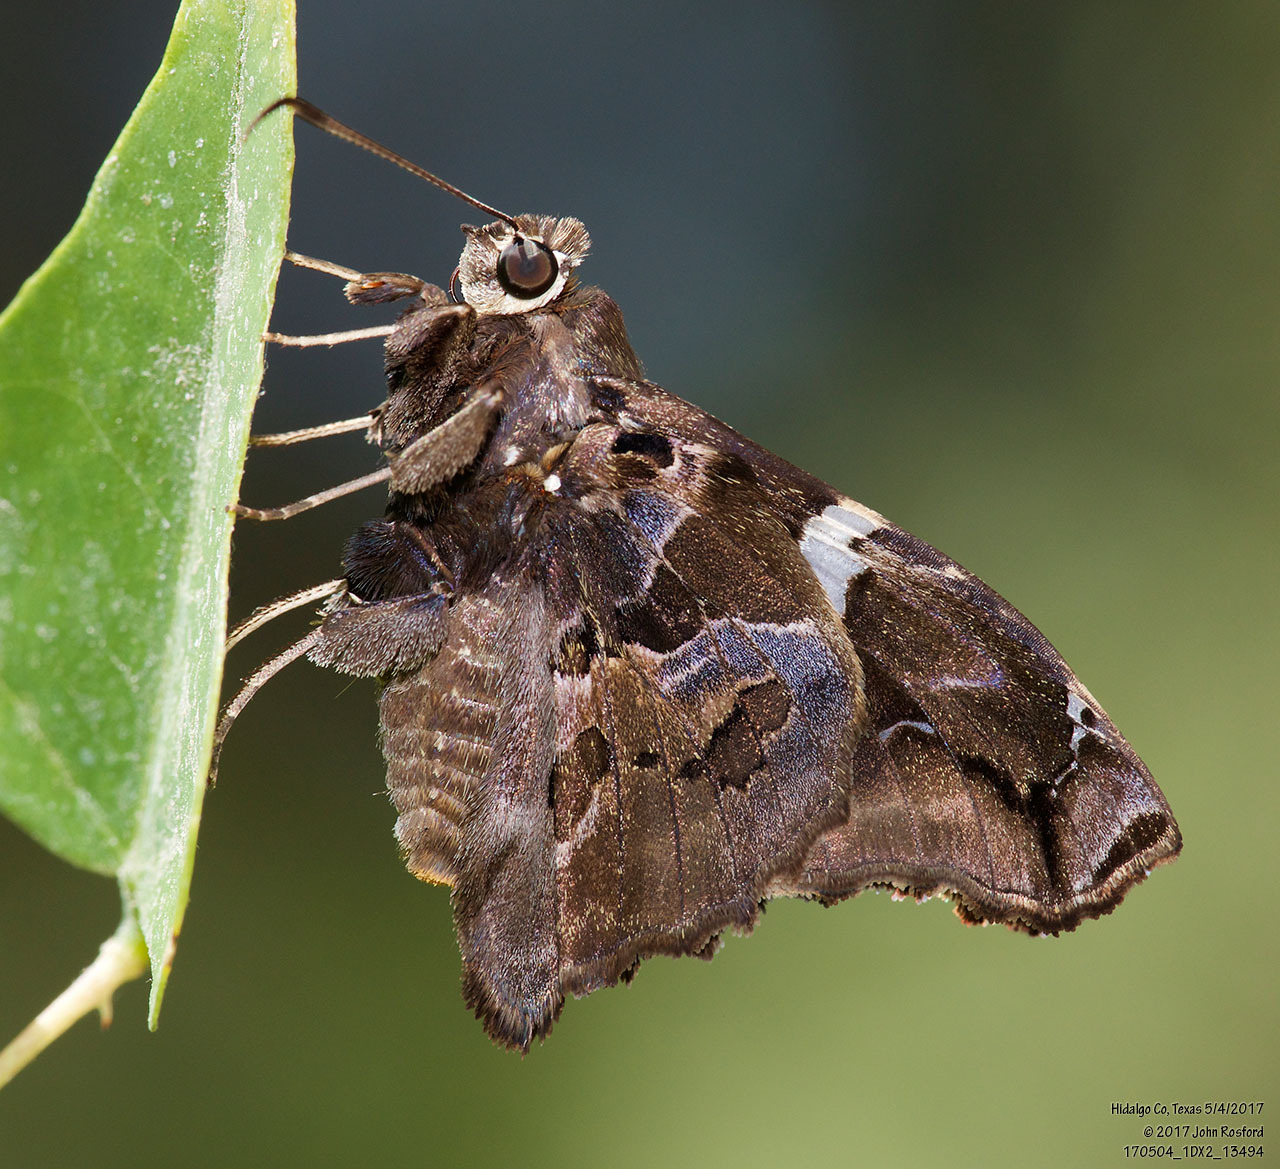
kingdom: Animalia
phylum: Arthropoda
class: Insecta
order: Lepidoptera
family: Hesperiidae
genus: Spathilepia
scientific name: Spathilepia clonius
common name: Falcate skipper
